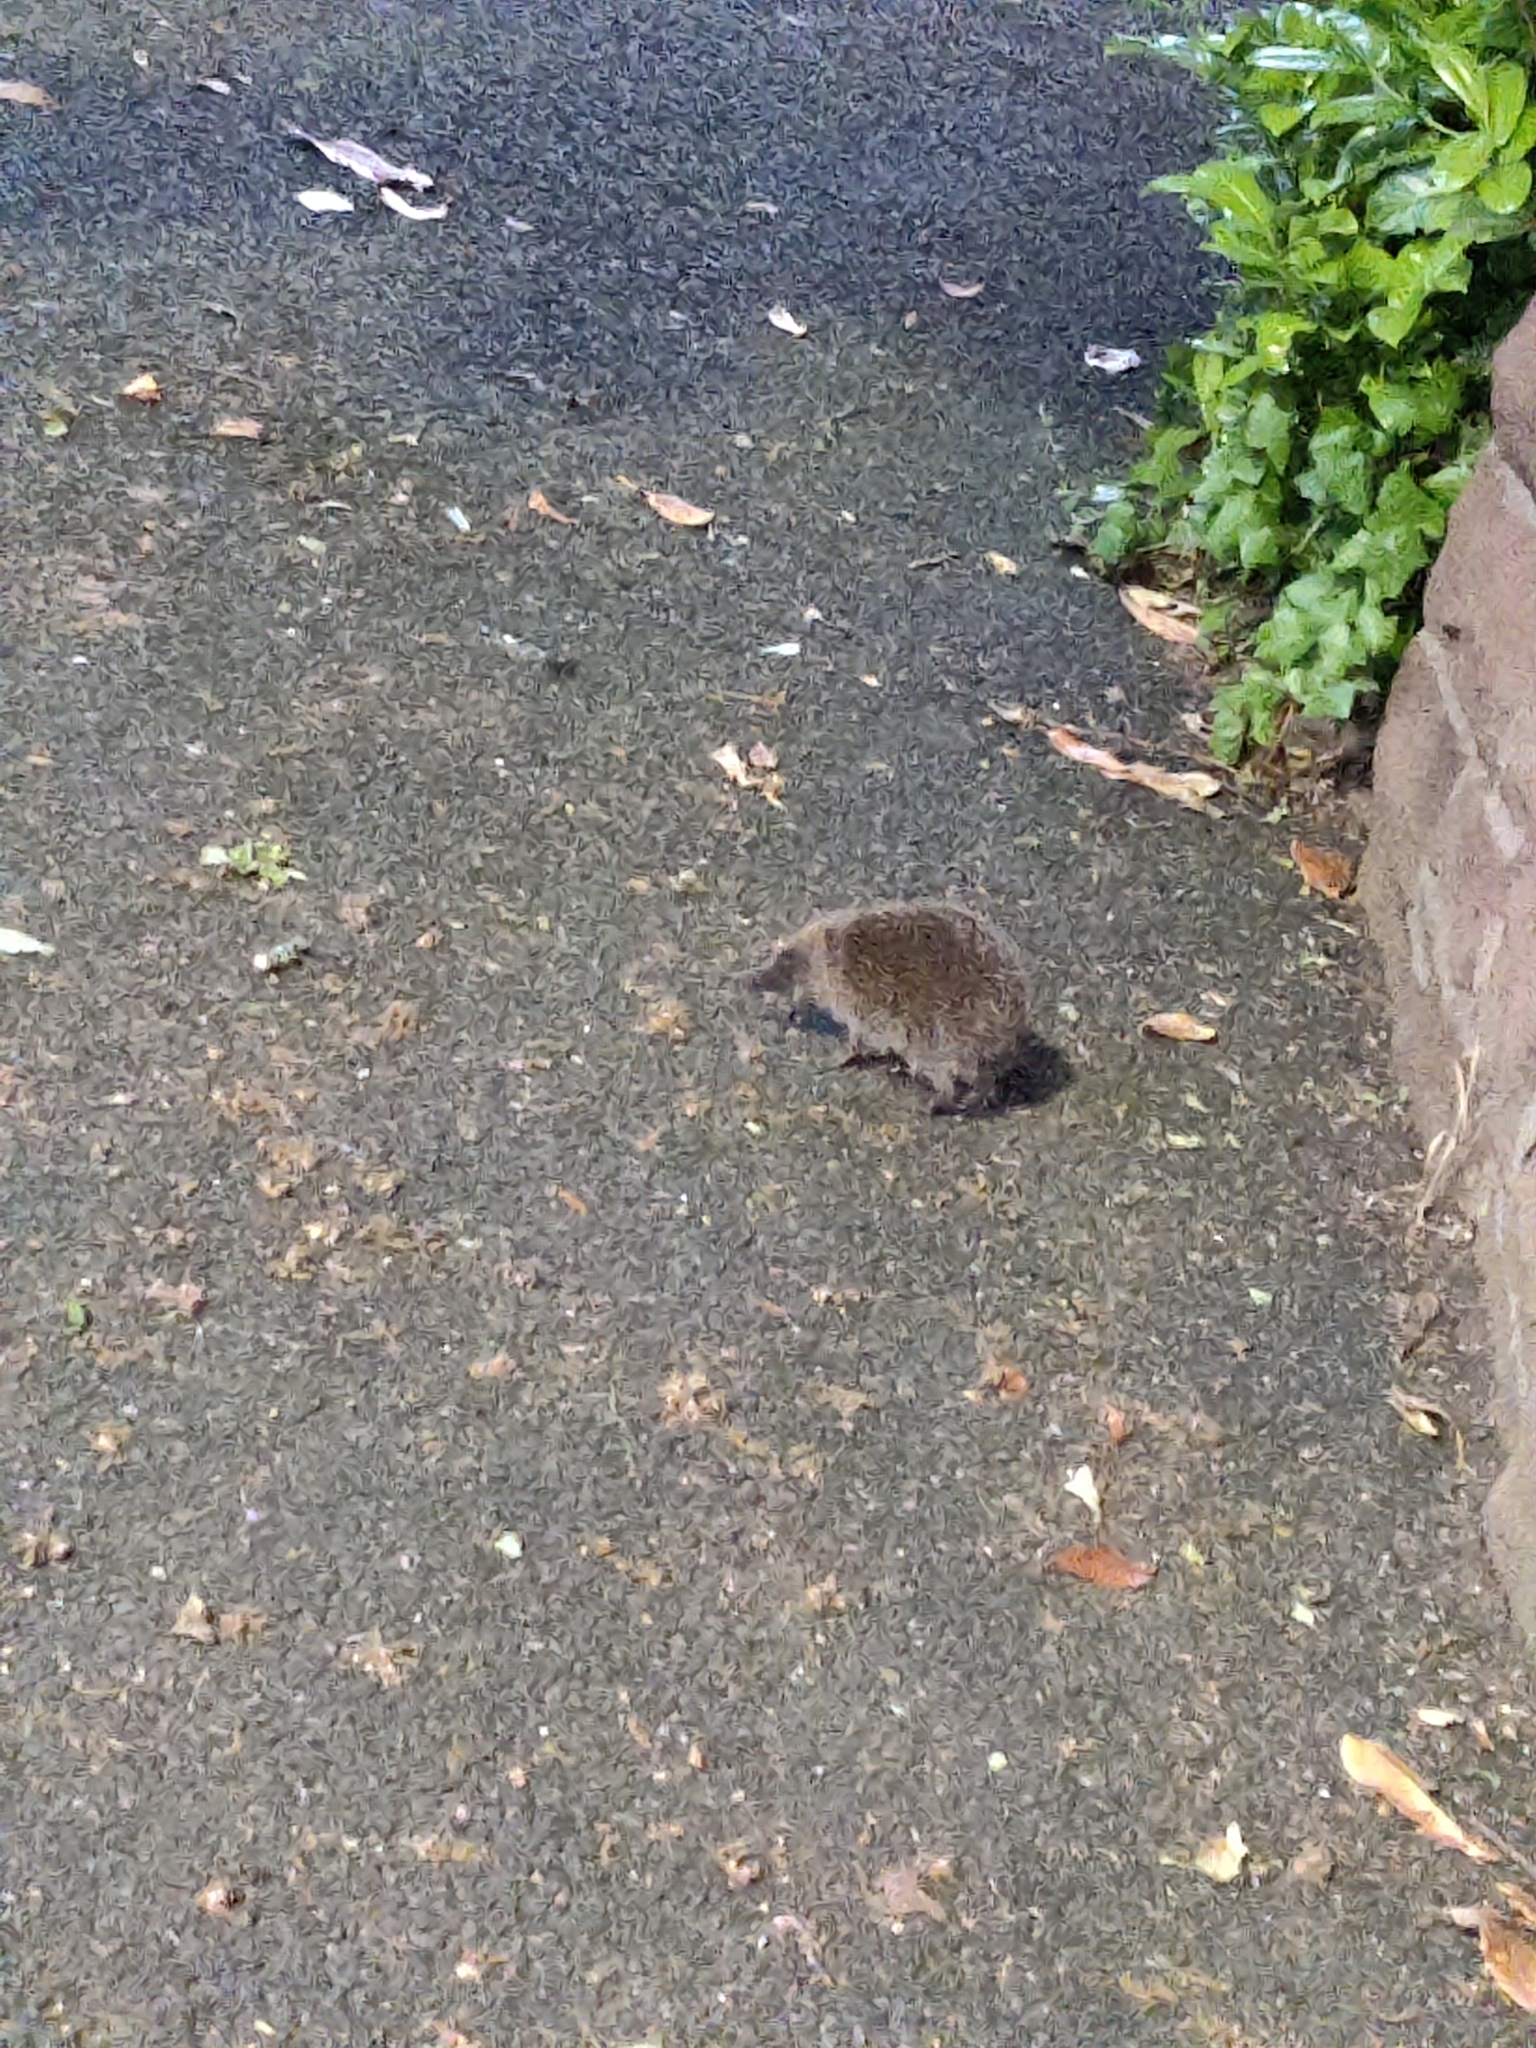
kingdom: Animalia
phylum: Chordata
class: Mammalia
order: Erinaceomorpha
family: Erinaceidae
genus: Erinaceus
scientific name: Erinaceus europaeus
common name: West european hedgehog
